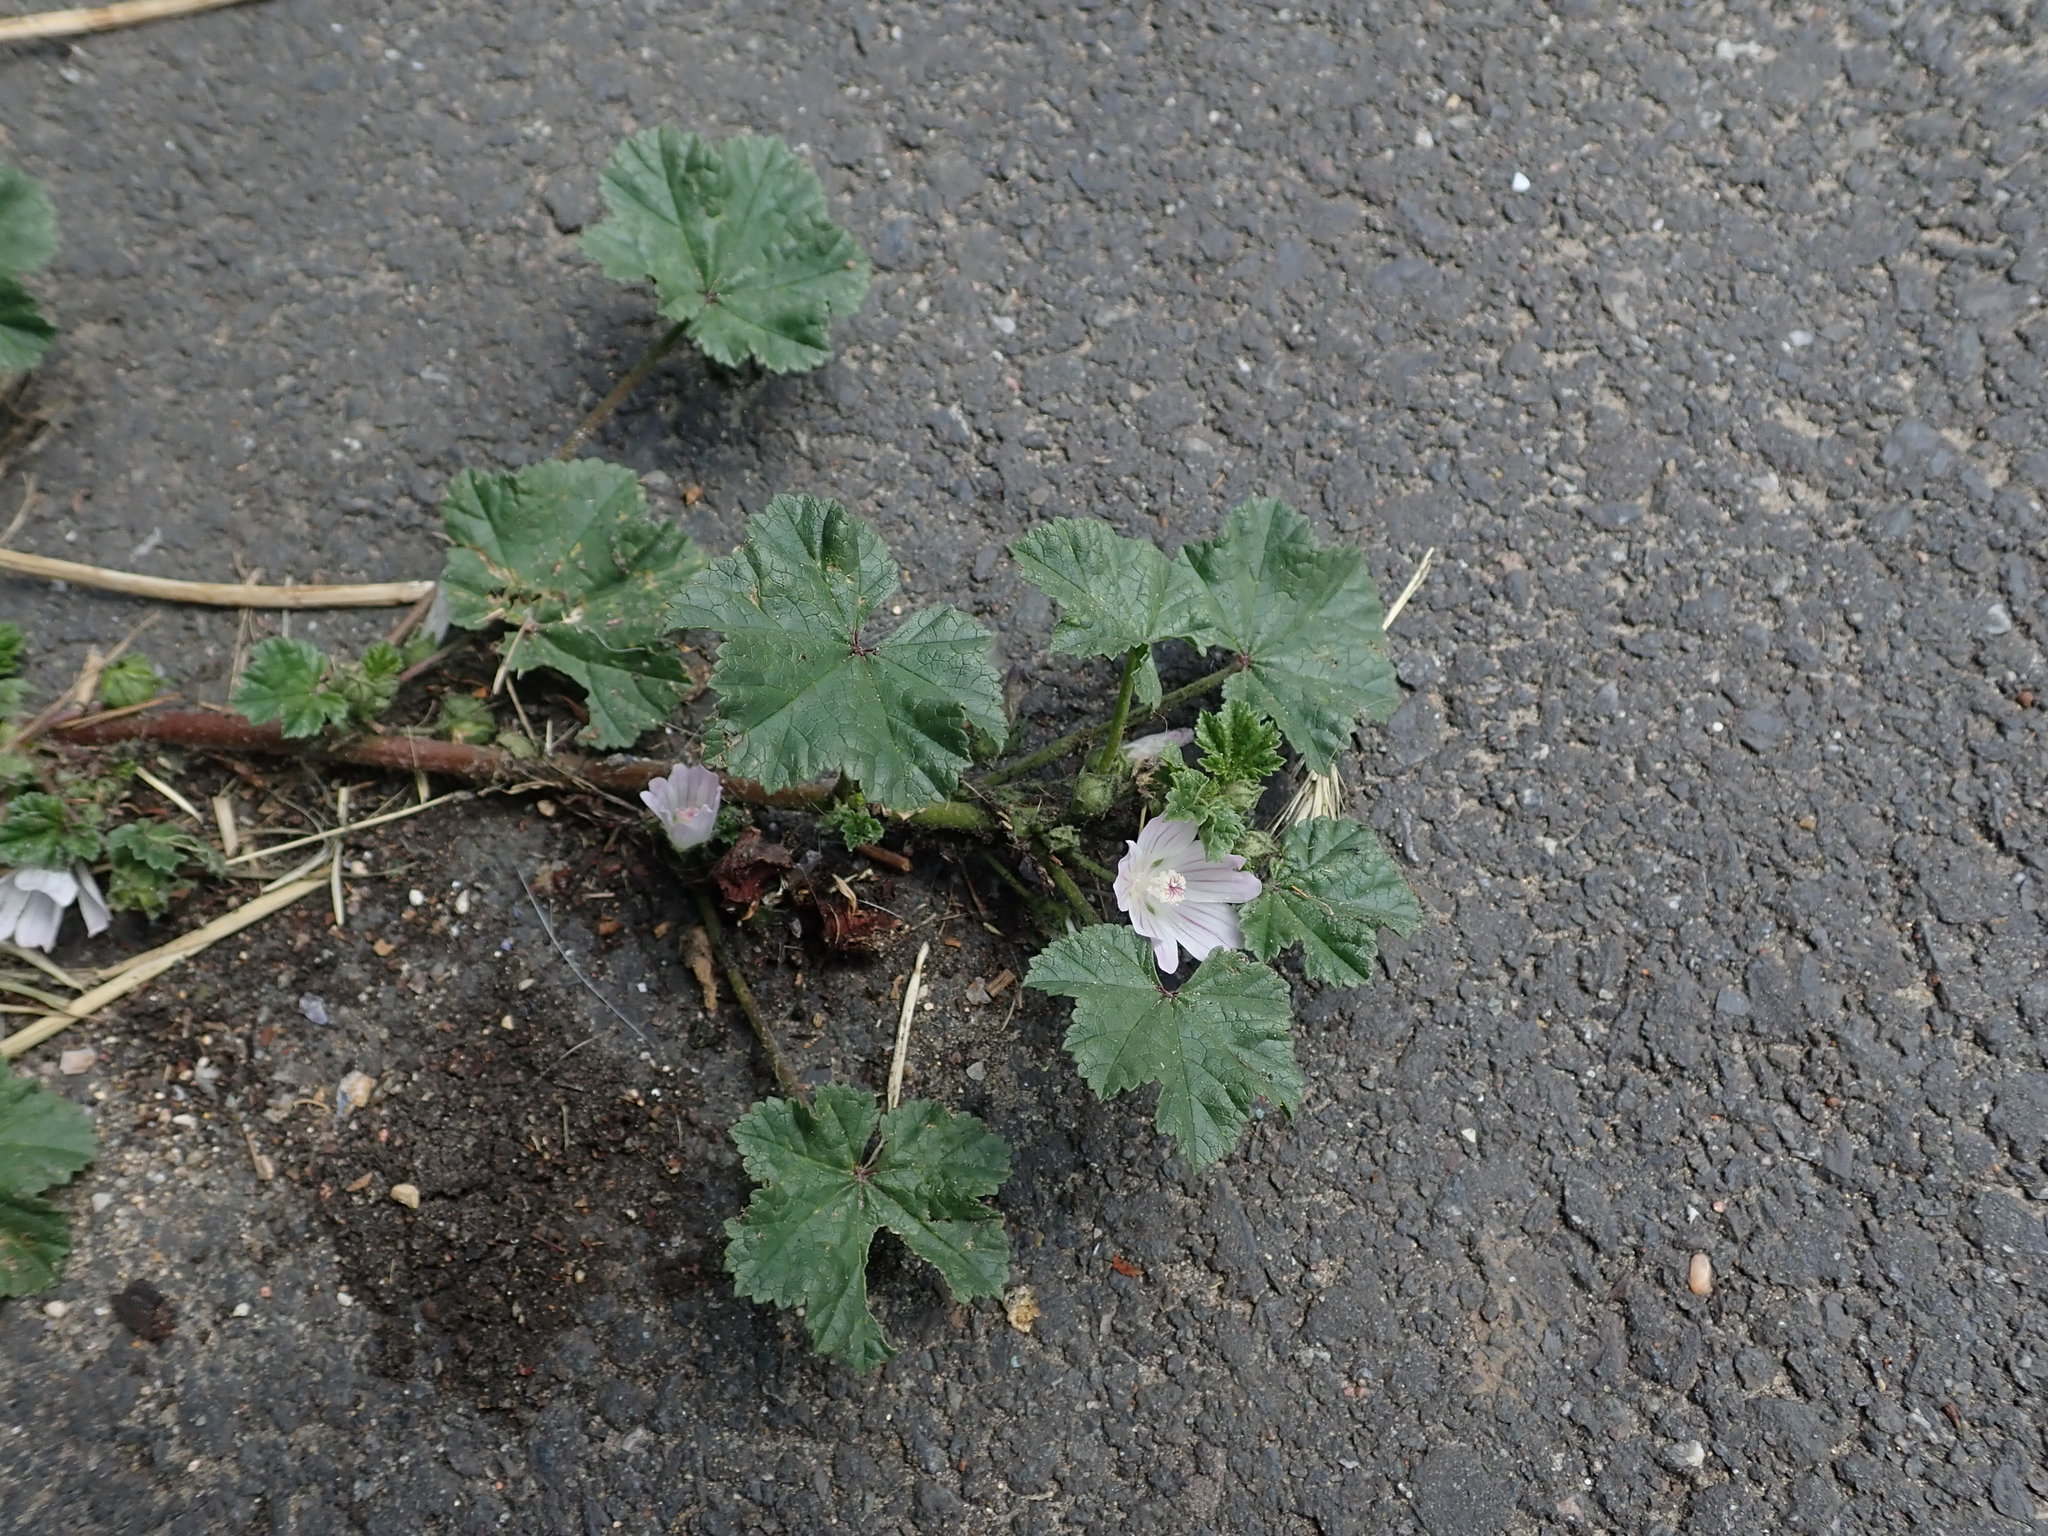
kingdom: Plantae
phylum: Tracheophyta
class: Magnoliopsida
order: Malvales
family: Malvaceae
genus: Malva
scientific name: Malva neglecta
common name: Common mallow
